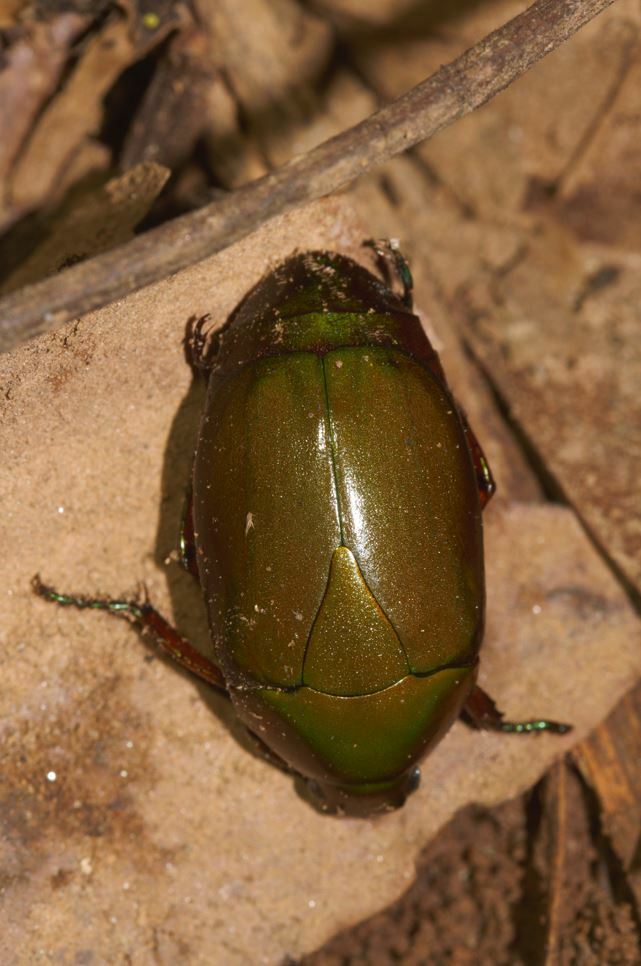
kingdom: Animalia
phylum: Arthropoda
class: Insecta
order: Coleoptera
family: Scarabaeidae
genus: Pseudomacraspis
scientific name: Pseudomacraspis affinis
